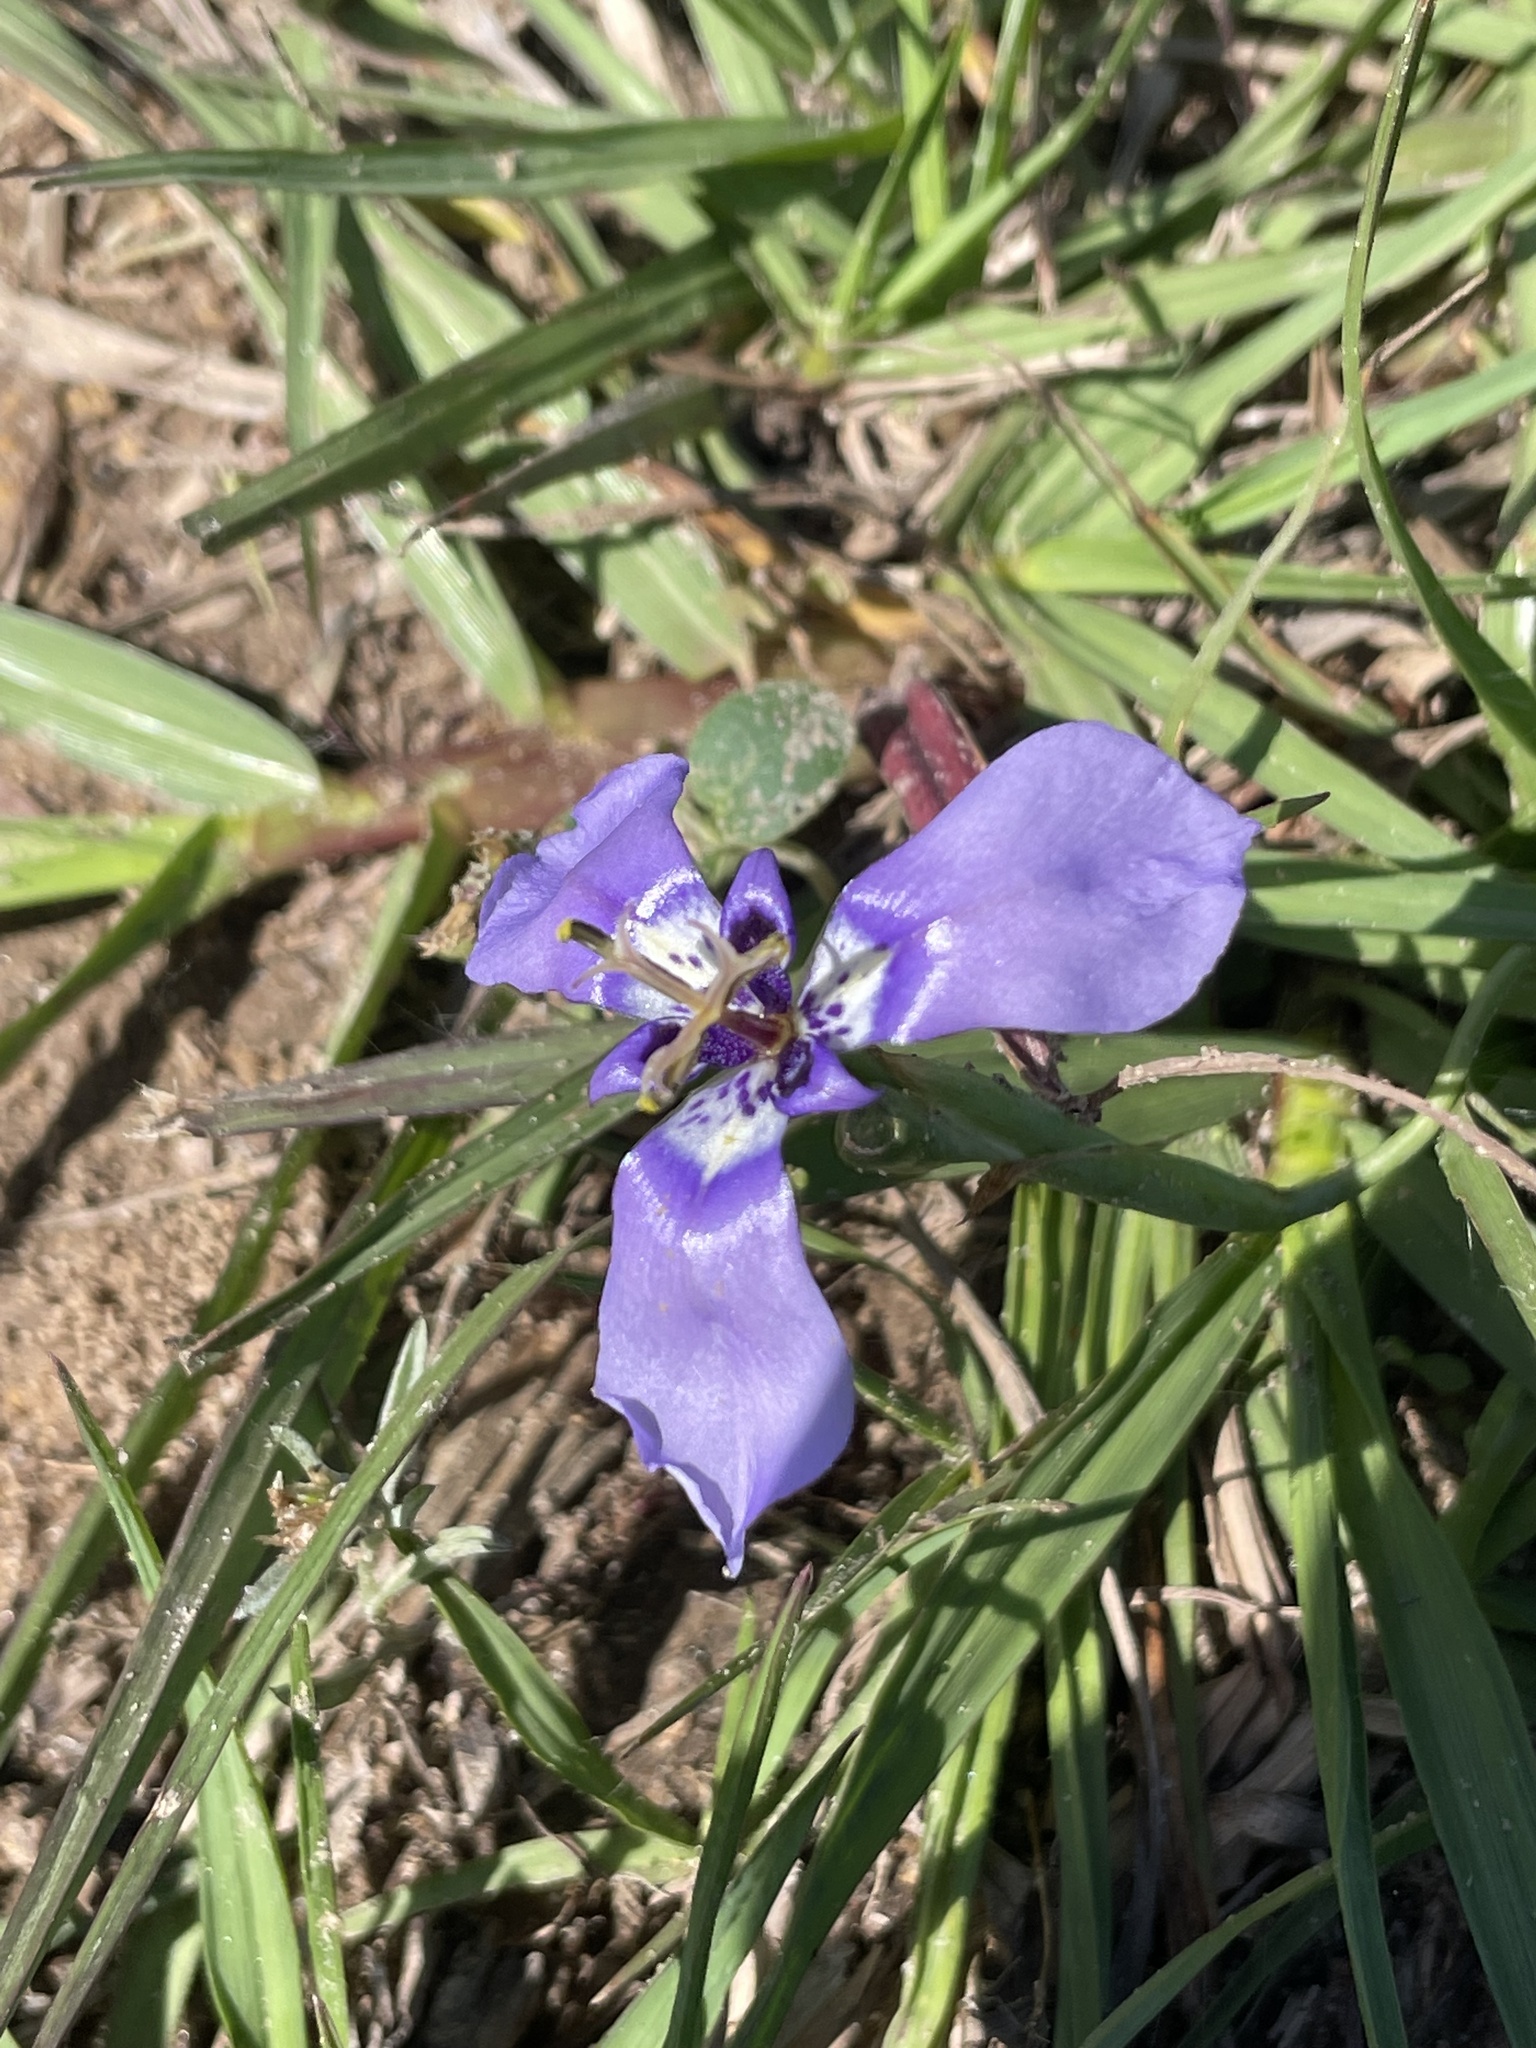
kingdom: Plantae
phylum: Tracheophyta
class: Liliopsida
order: Asparagales
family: Iridaceae
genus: Herbertia
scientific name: Herbertia lahue
